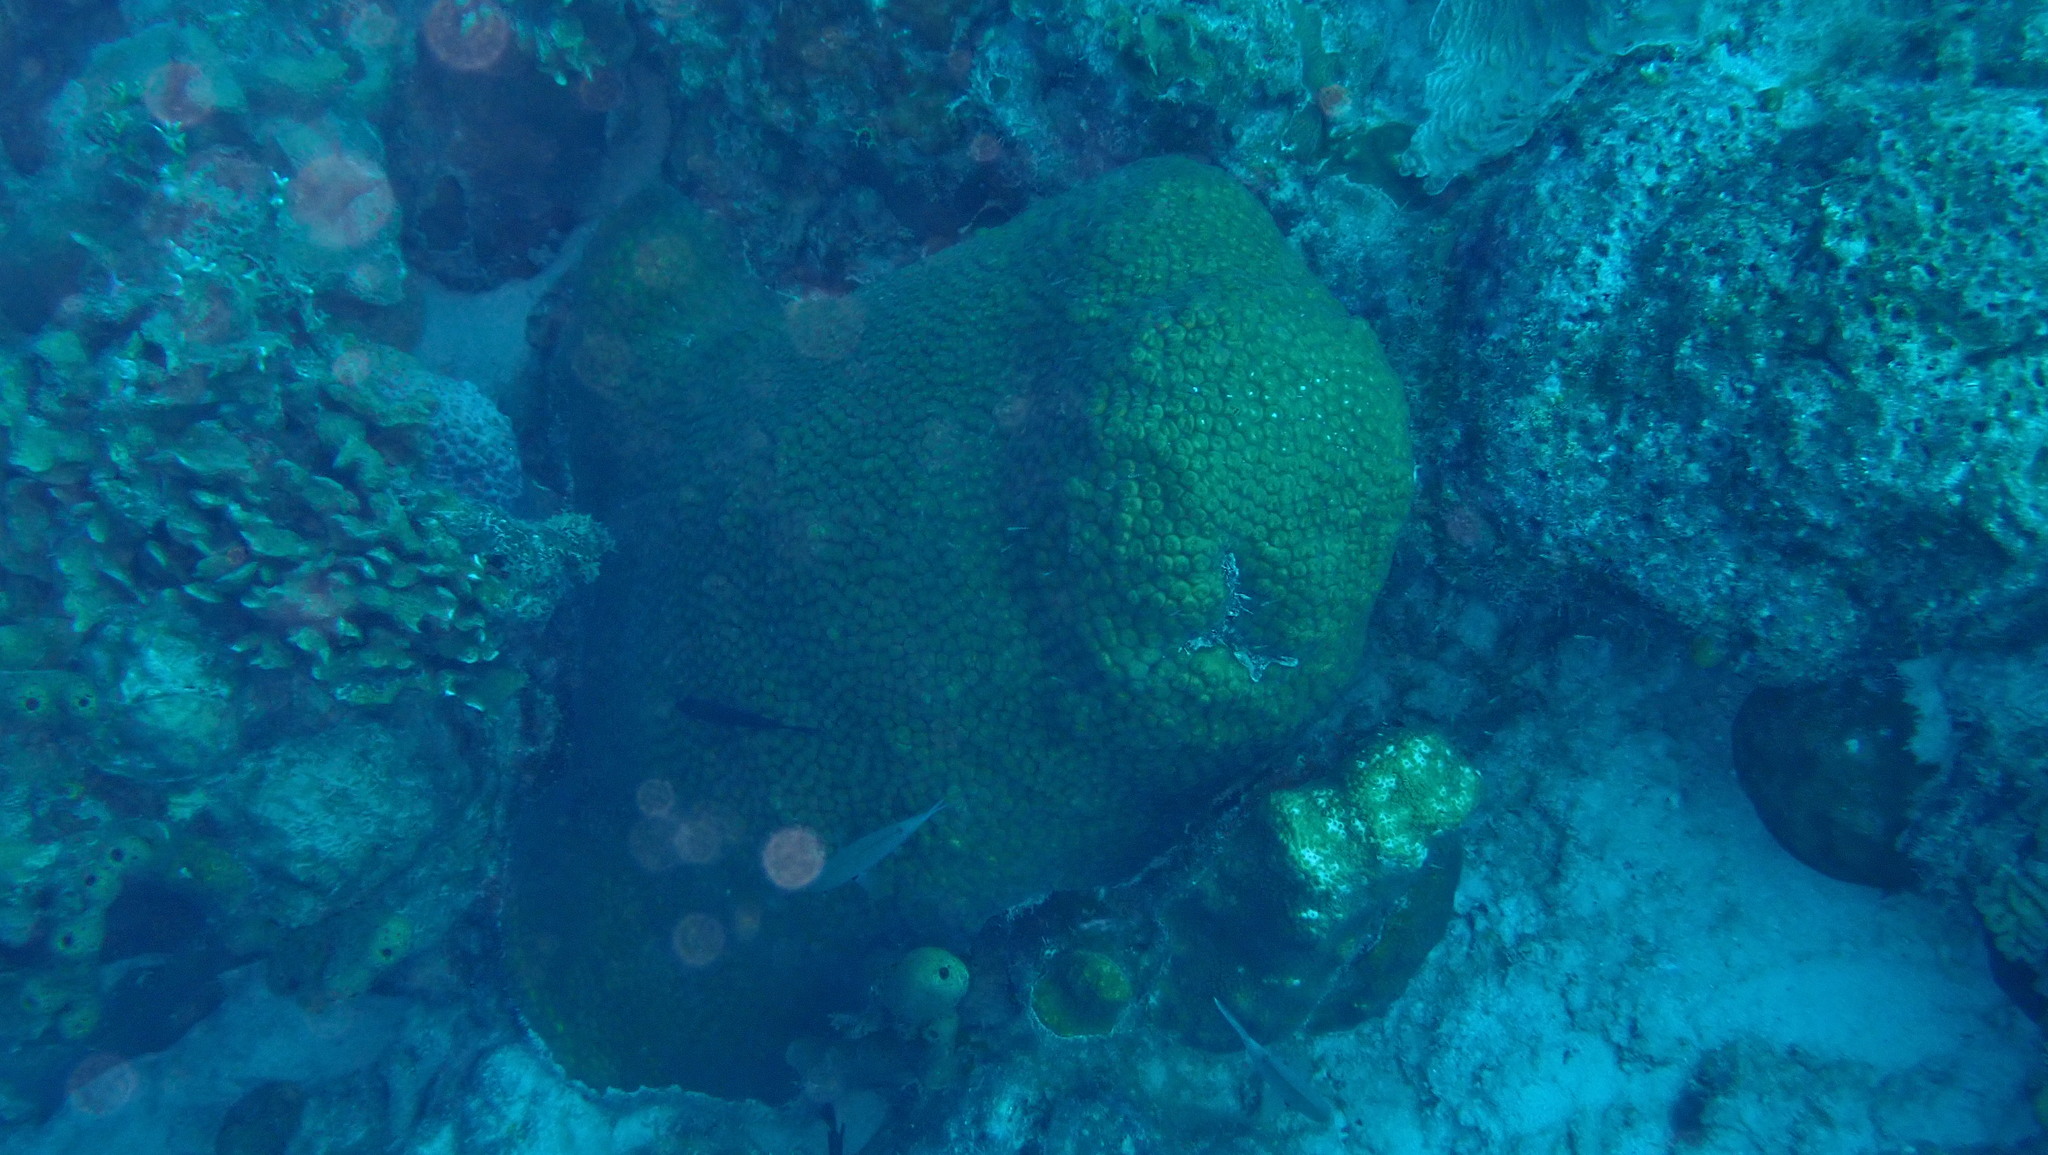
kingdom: Animalia
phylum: Cnidaria
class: Anthozoa
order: Scleractinia
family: Montastraeidae
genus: Montastraea
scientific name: Montastraea cavernosa
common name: Great star coral
